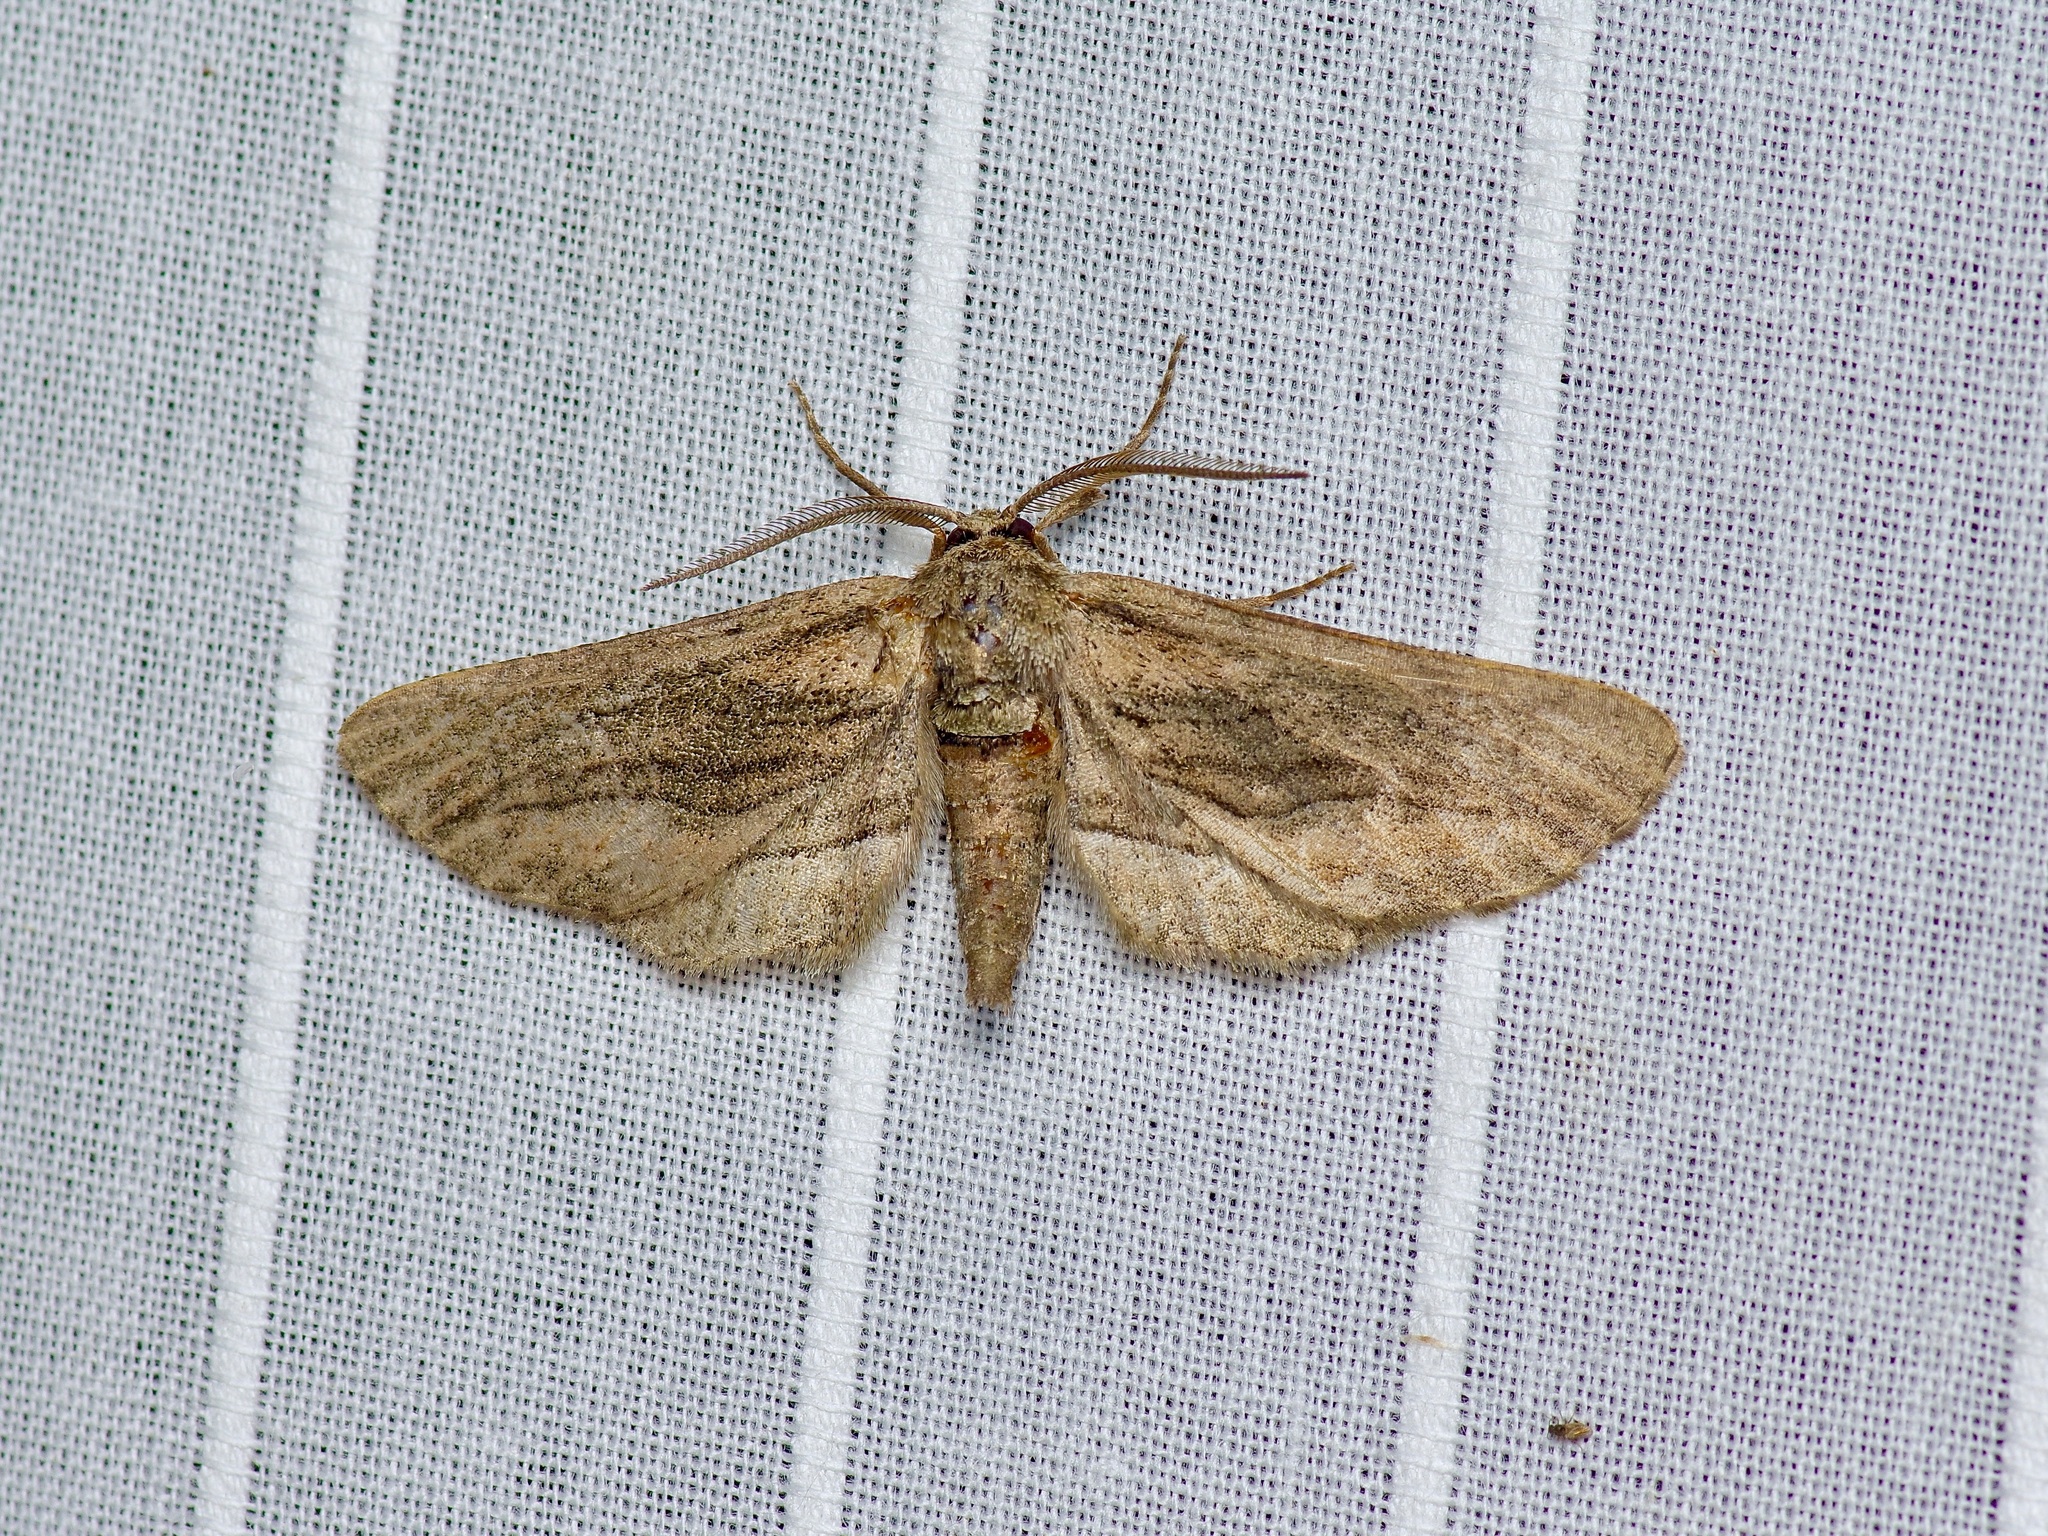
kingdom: Animalia
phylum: Arthropoda
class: Insecta
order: Lepidoptera
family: Geometridae
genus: Holochroa
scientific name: Holochroa dissociarius
